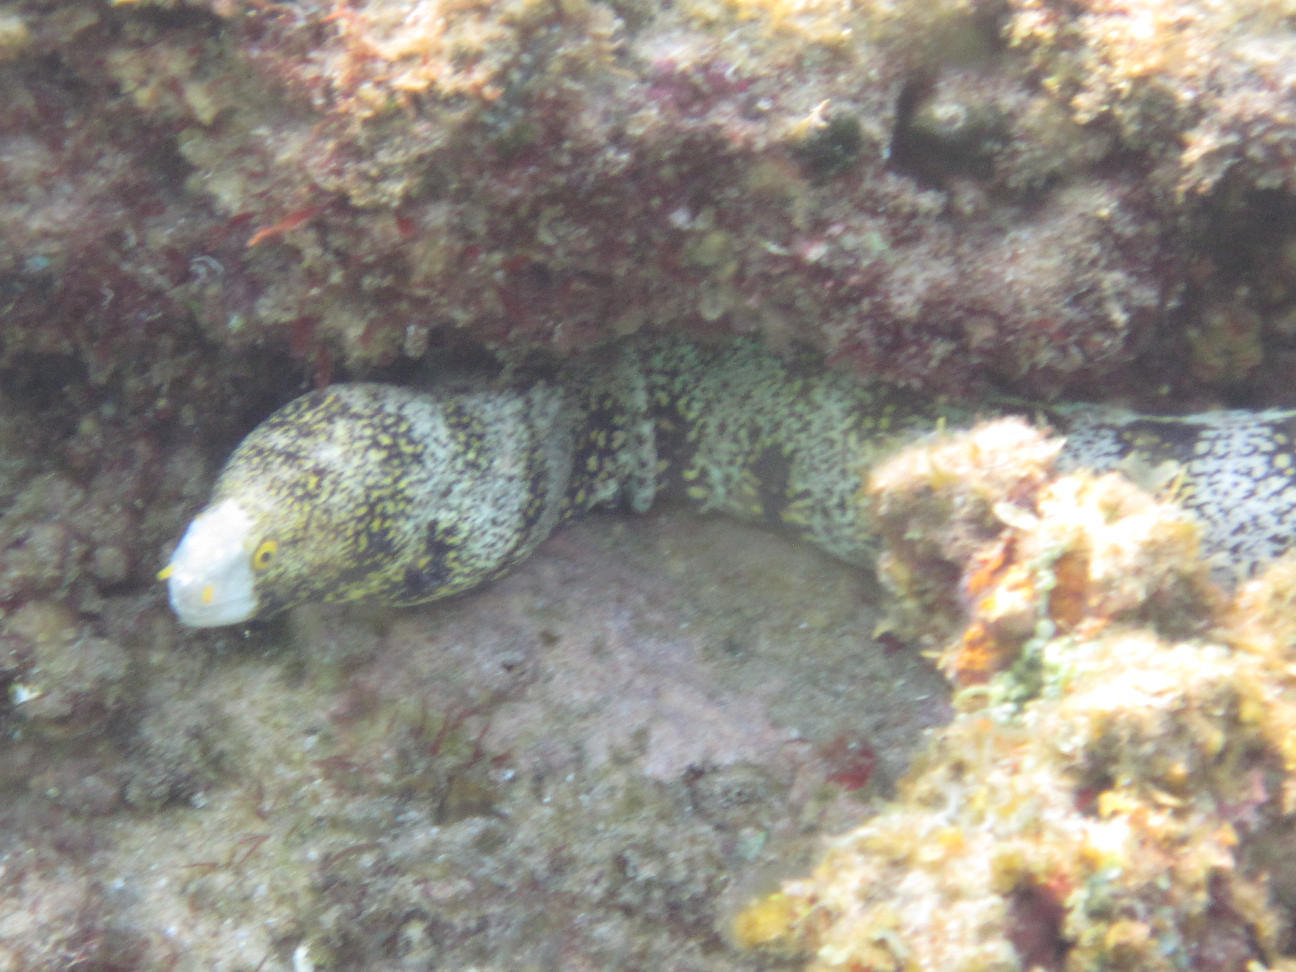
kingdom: Animalia
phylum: Chordata
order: Anguilliformes
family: Muraenidae
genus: Echidna
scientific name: Echidna nebulosa
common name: Snowflake moray
